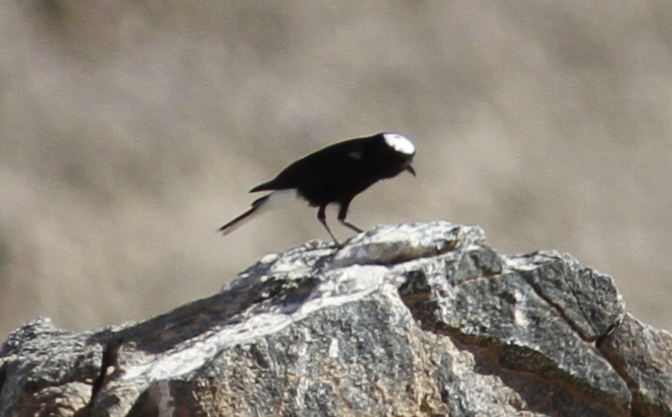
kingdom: Animalia
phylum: Chordata
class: Aves
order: Passeriformes
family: Muscicapidae
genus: Oenanthe
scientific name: Oenanthe leucopyga
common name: White-crowned wheatear
